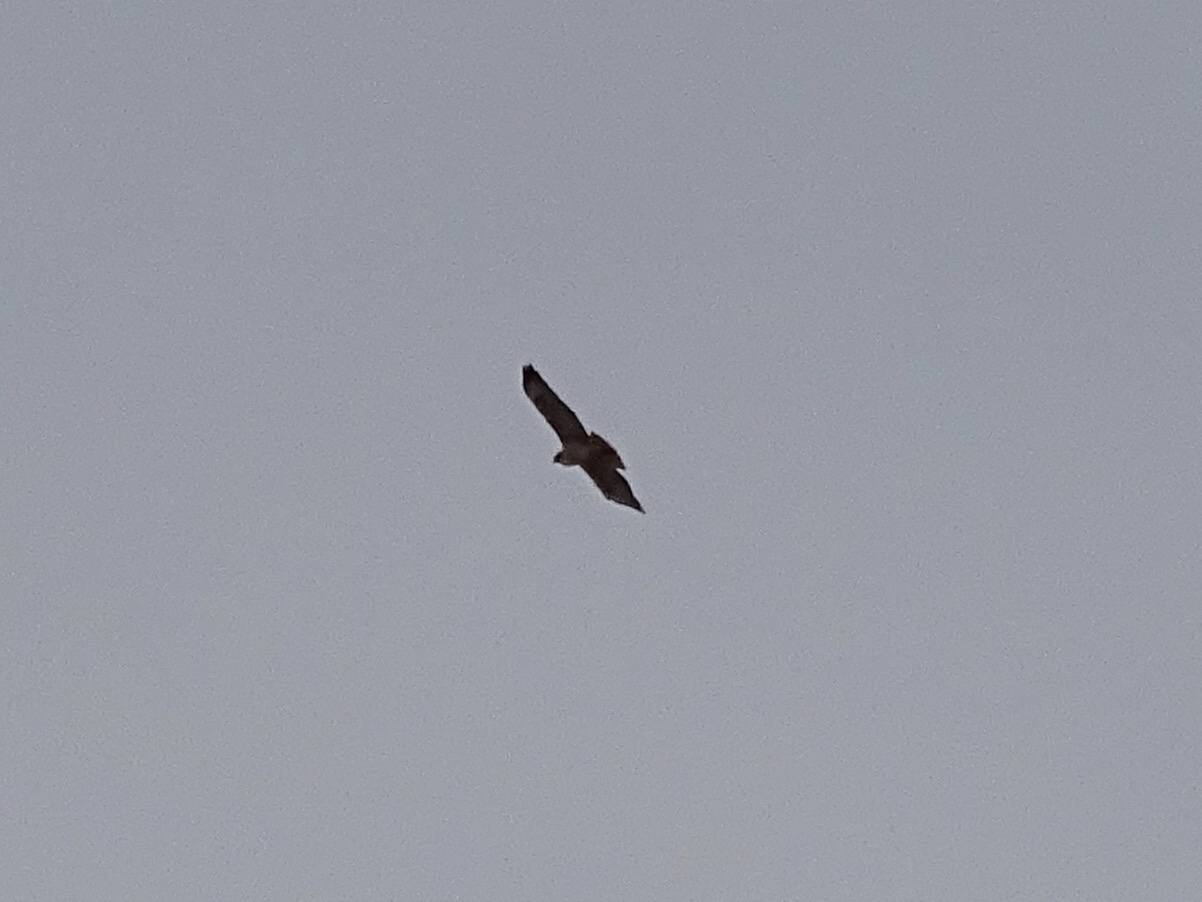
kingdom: Animalia
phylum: Chordata
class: Aves
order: Accipitriformes
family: Accipitridae
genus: Buteo
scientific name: Buteo jamaicensis
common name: Red-tailed hawk
